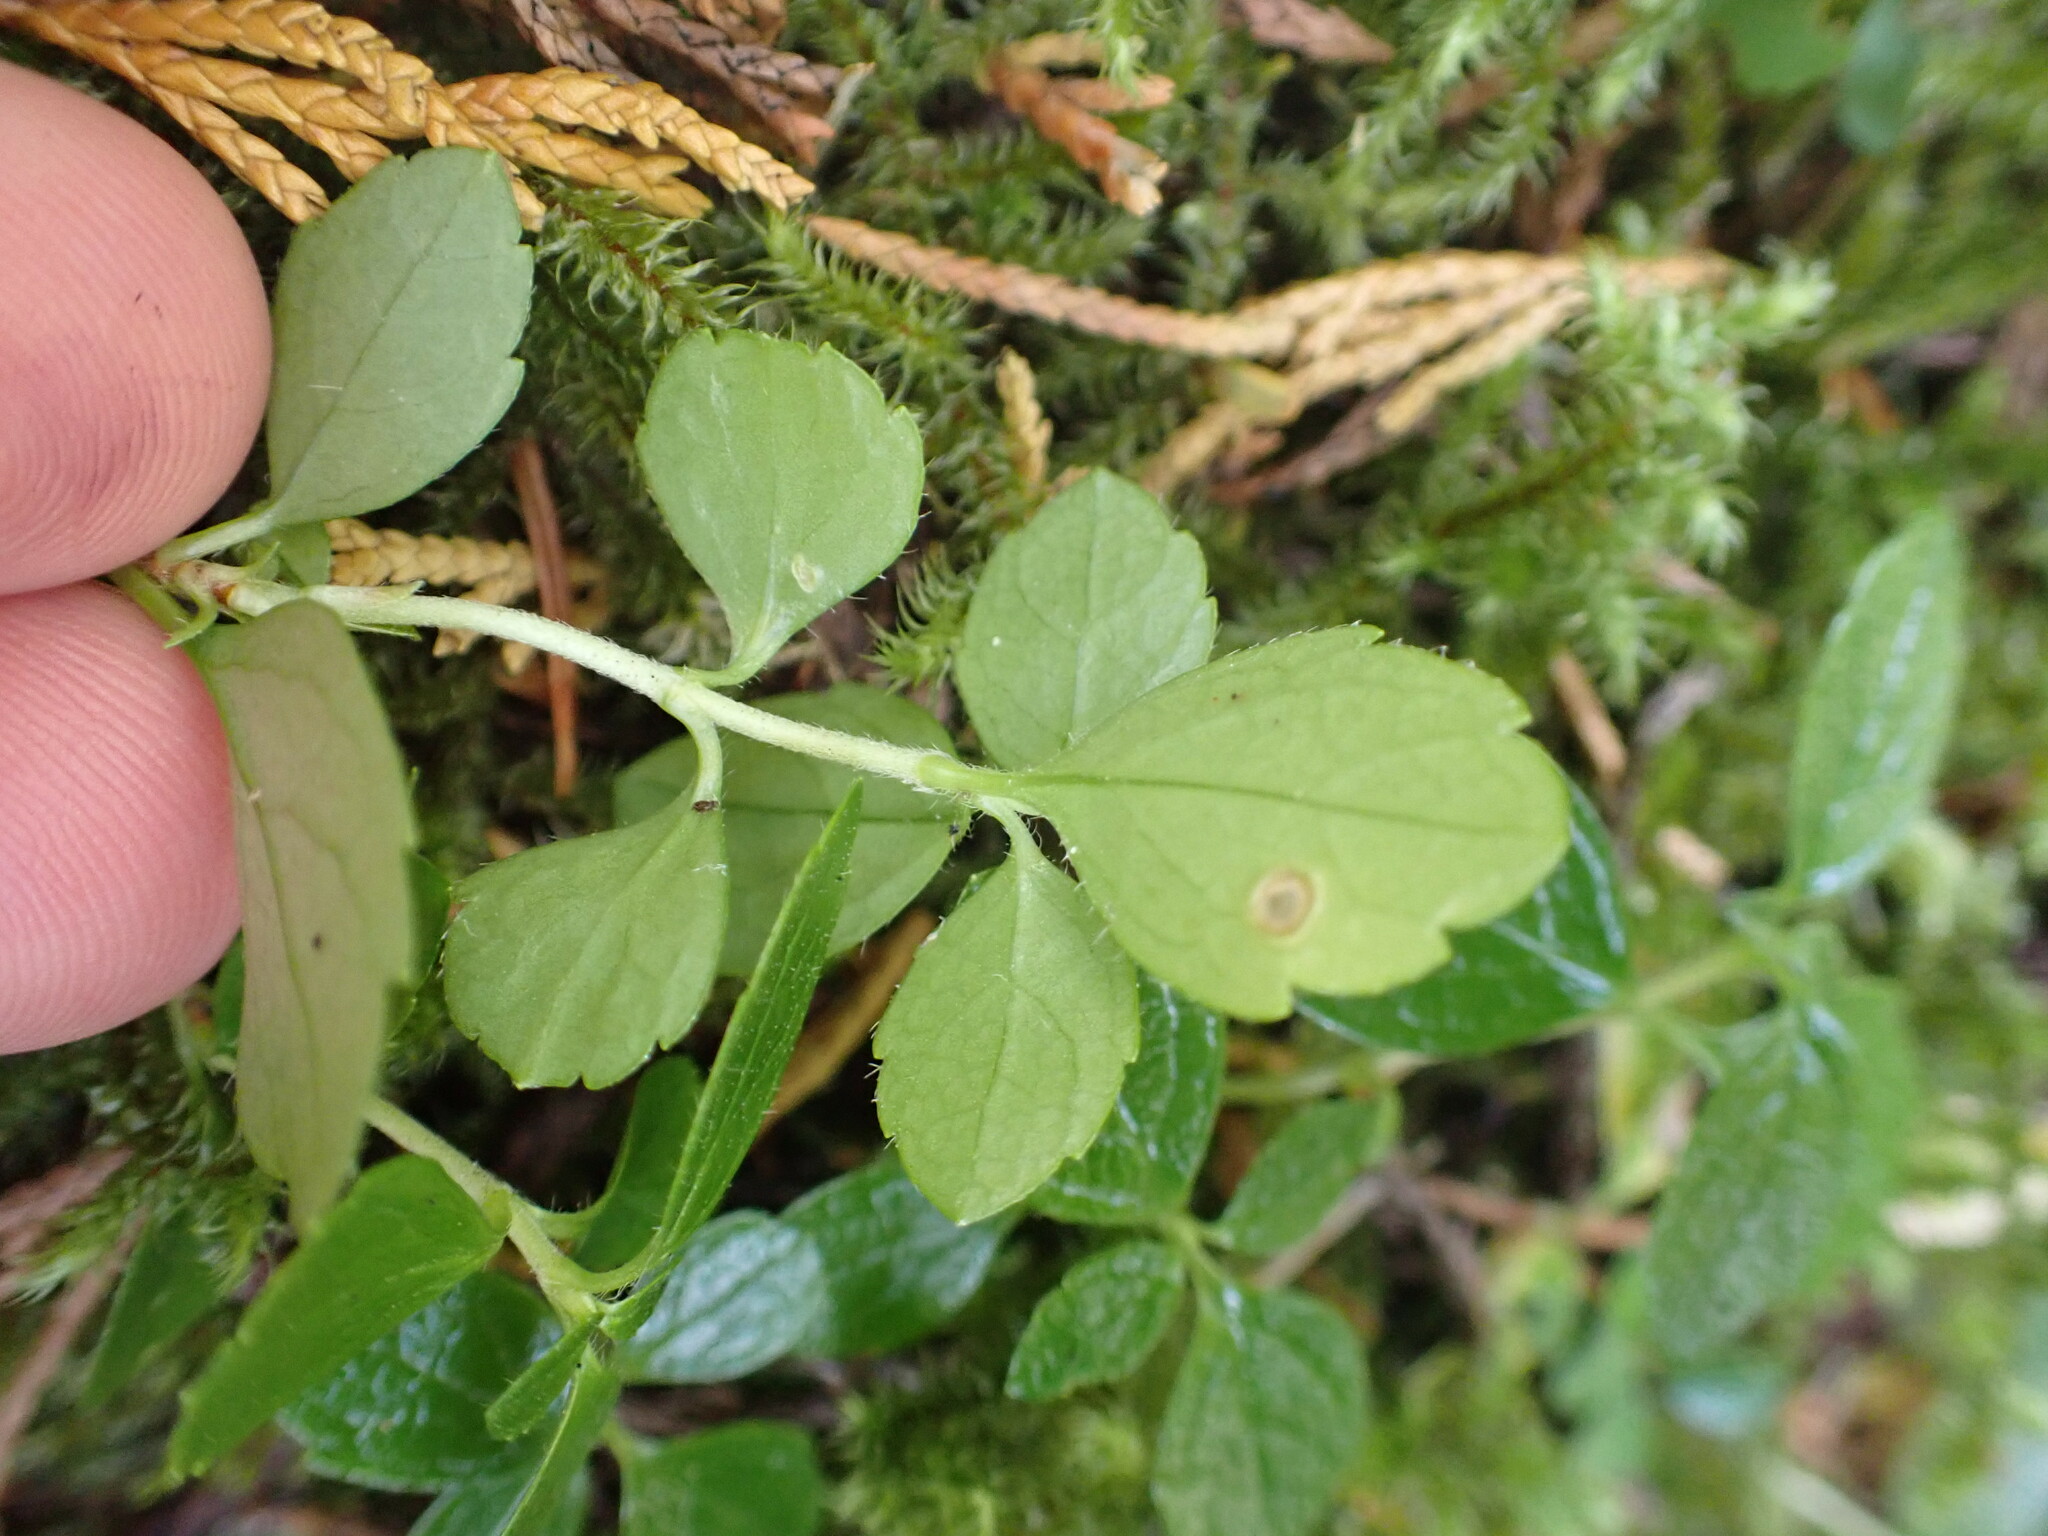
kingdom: Plantae
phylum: Tracheophyta
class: Magnoliopsida
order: Dipsacales
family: Caprifoliaceae
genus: Linnaea
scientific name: Linnaea borealis
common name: Twinflower
